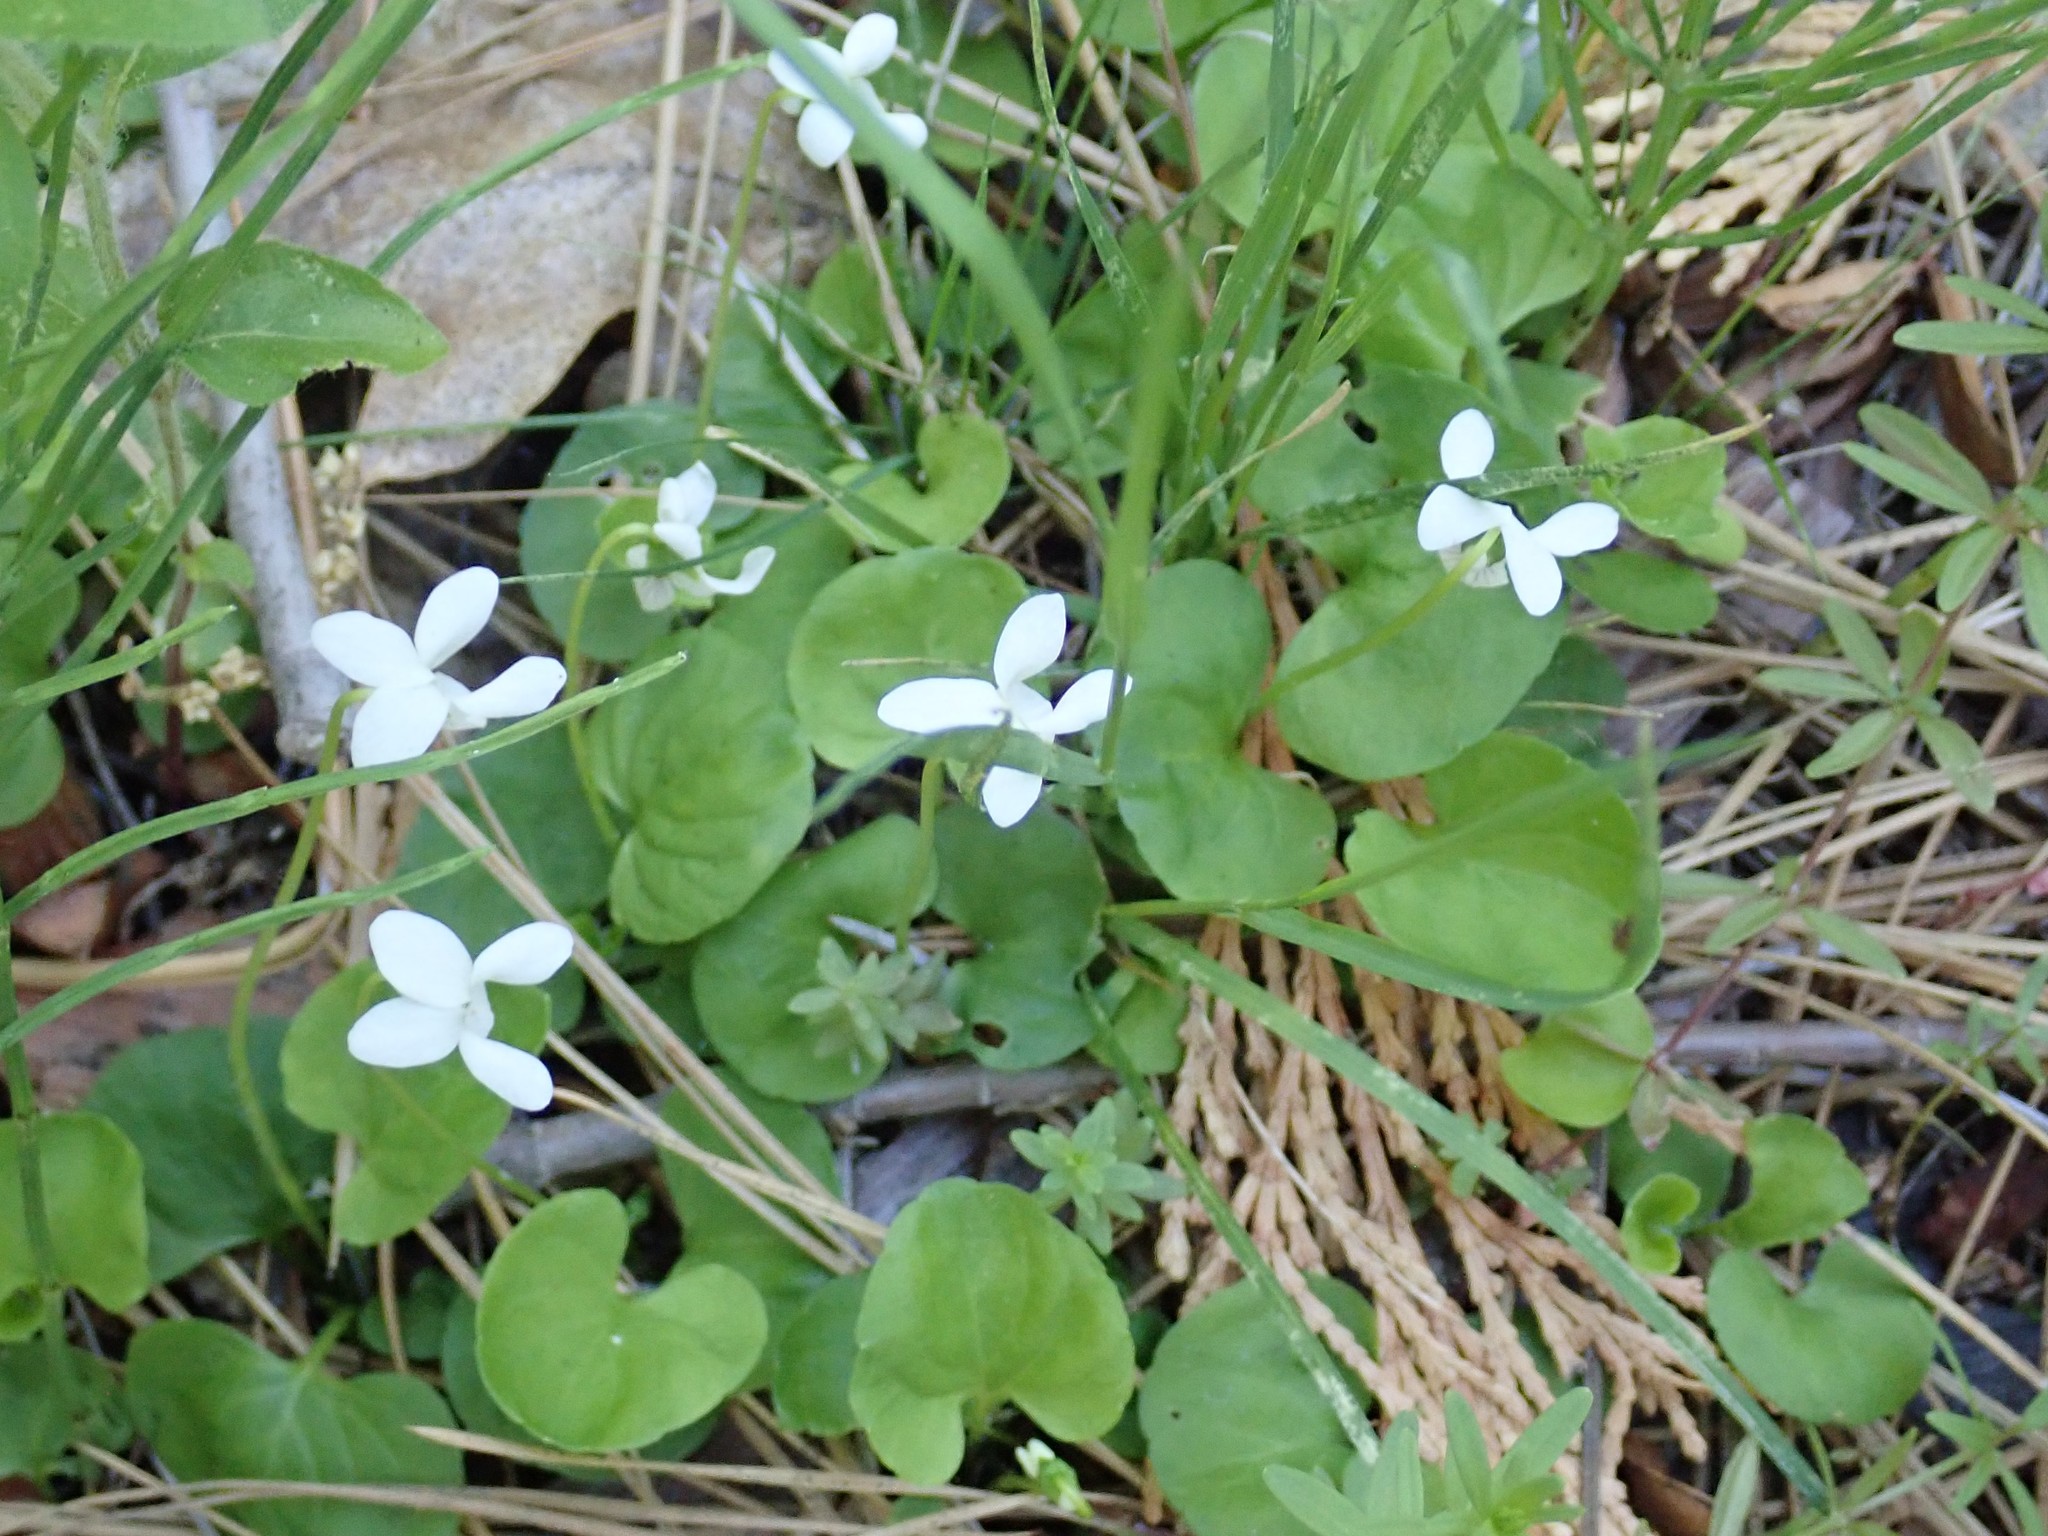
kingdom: Plantae
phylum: Tracheophyta
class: Magnoliopsida
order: Malpighiales
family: Violaceae
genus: Viola
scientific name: Viola macloskeyi
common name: Macloskey's violet
